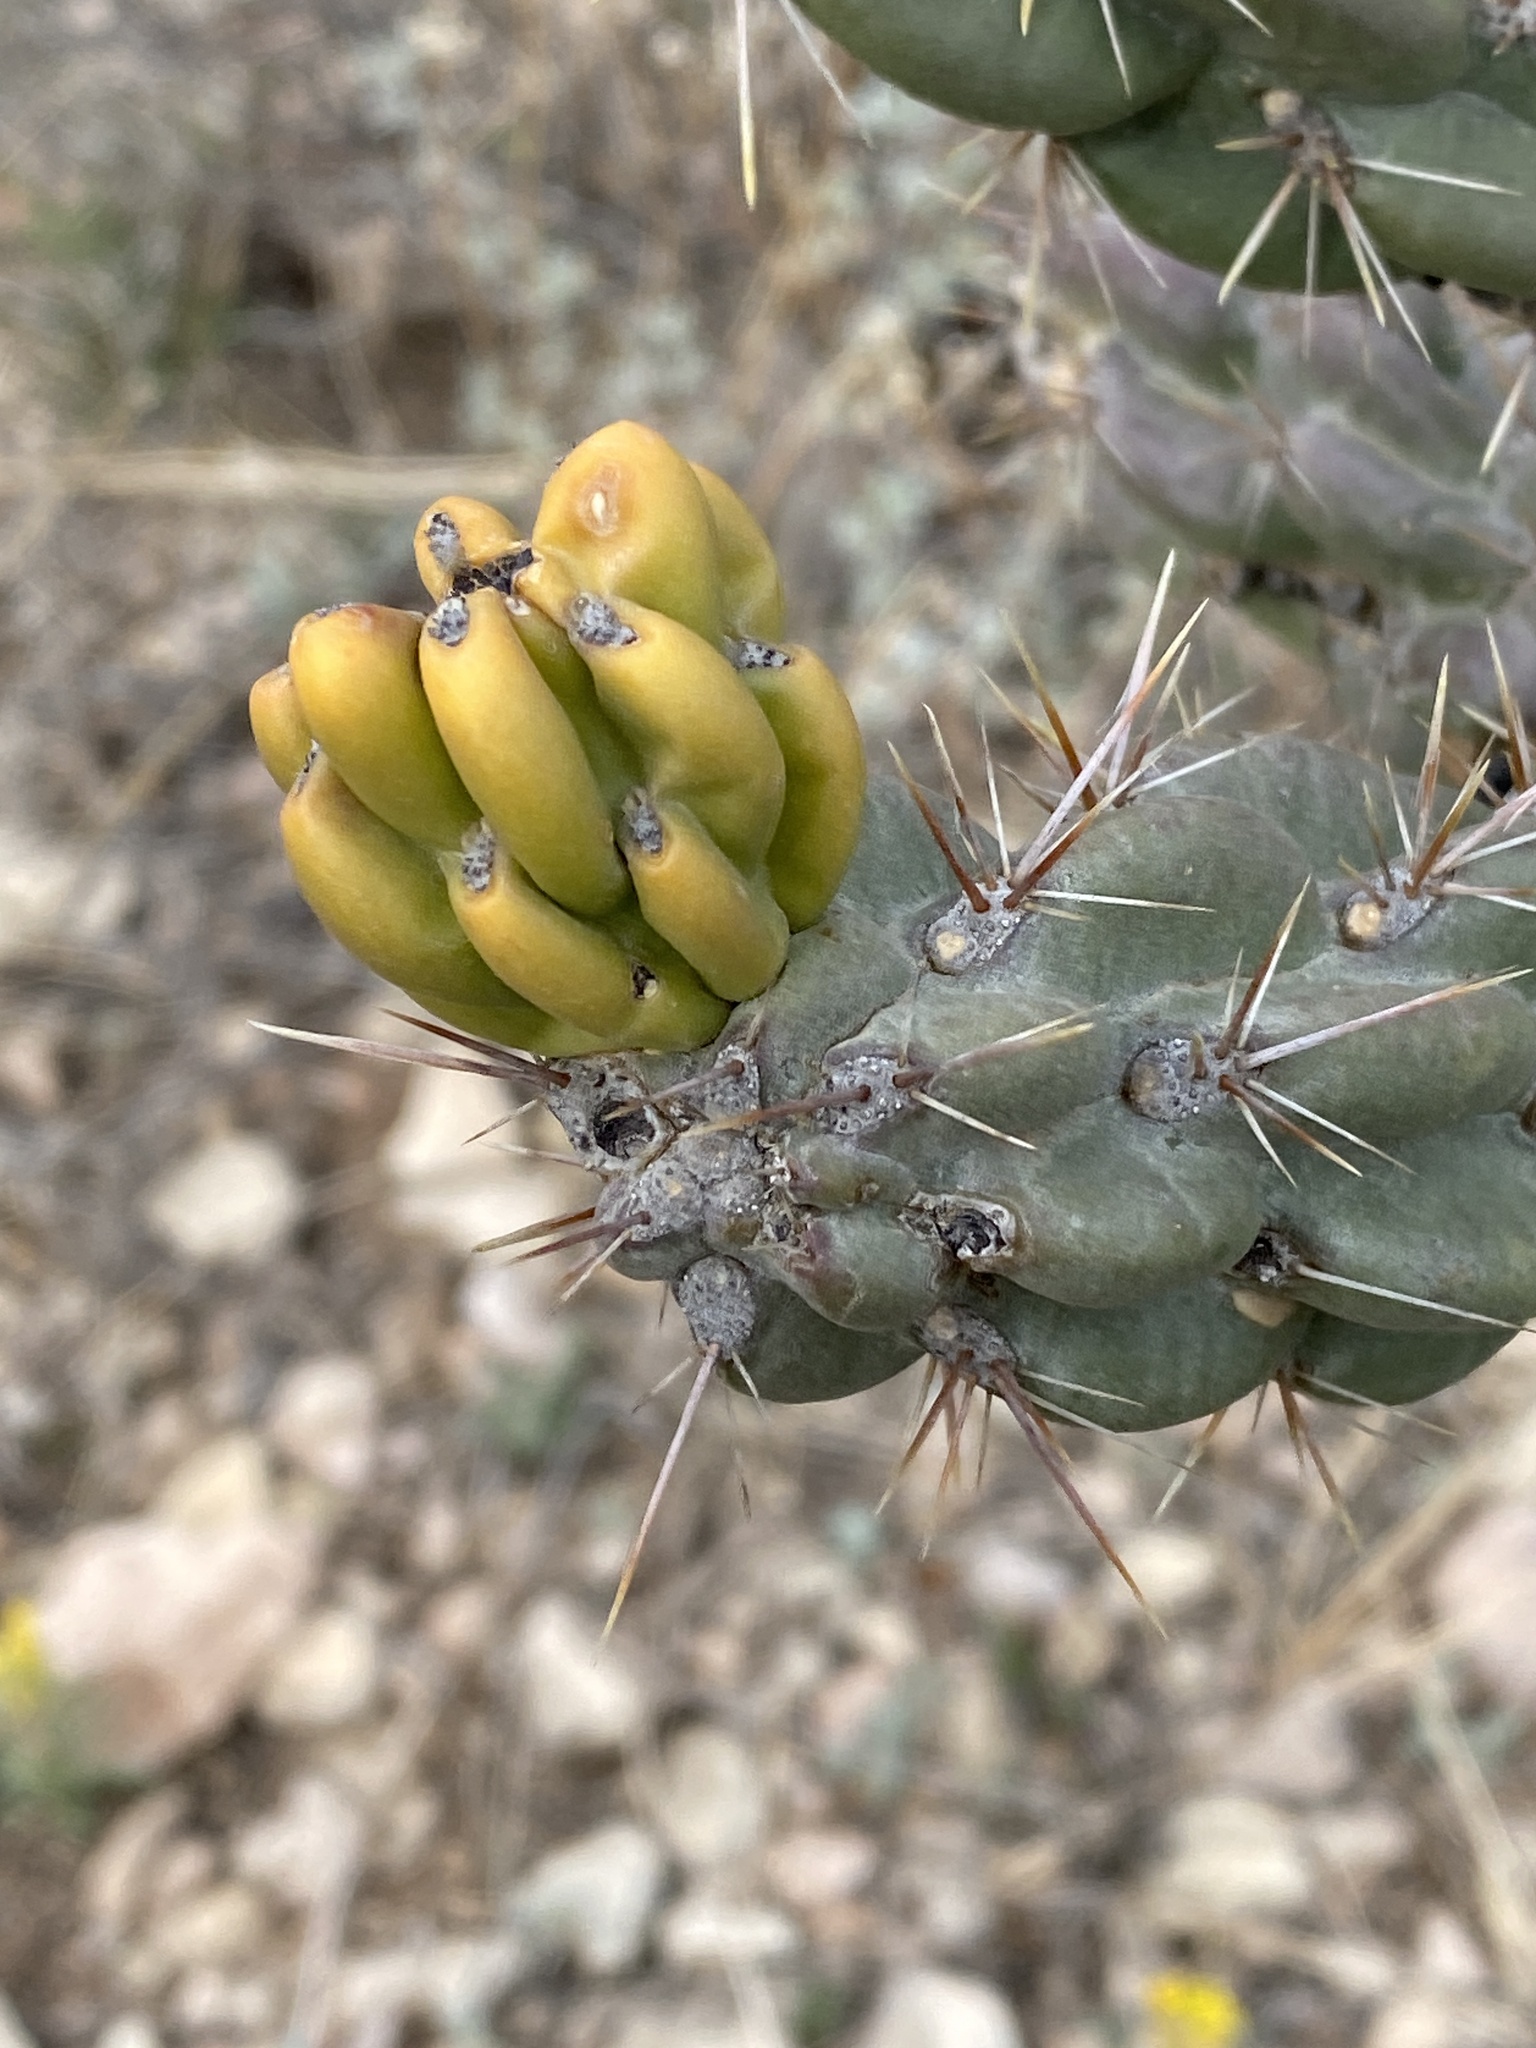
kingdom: Plantae
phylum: Tracheophyta
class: Magnoliopsida
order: Caryophyllales
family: Cactaceae
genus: Cylindropuntia
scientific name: Cylindropuntia imbricata
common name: Candelabrum cactus
